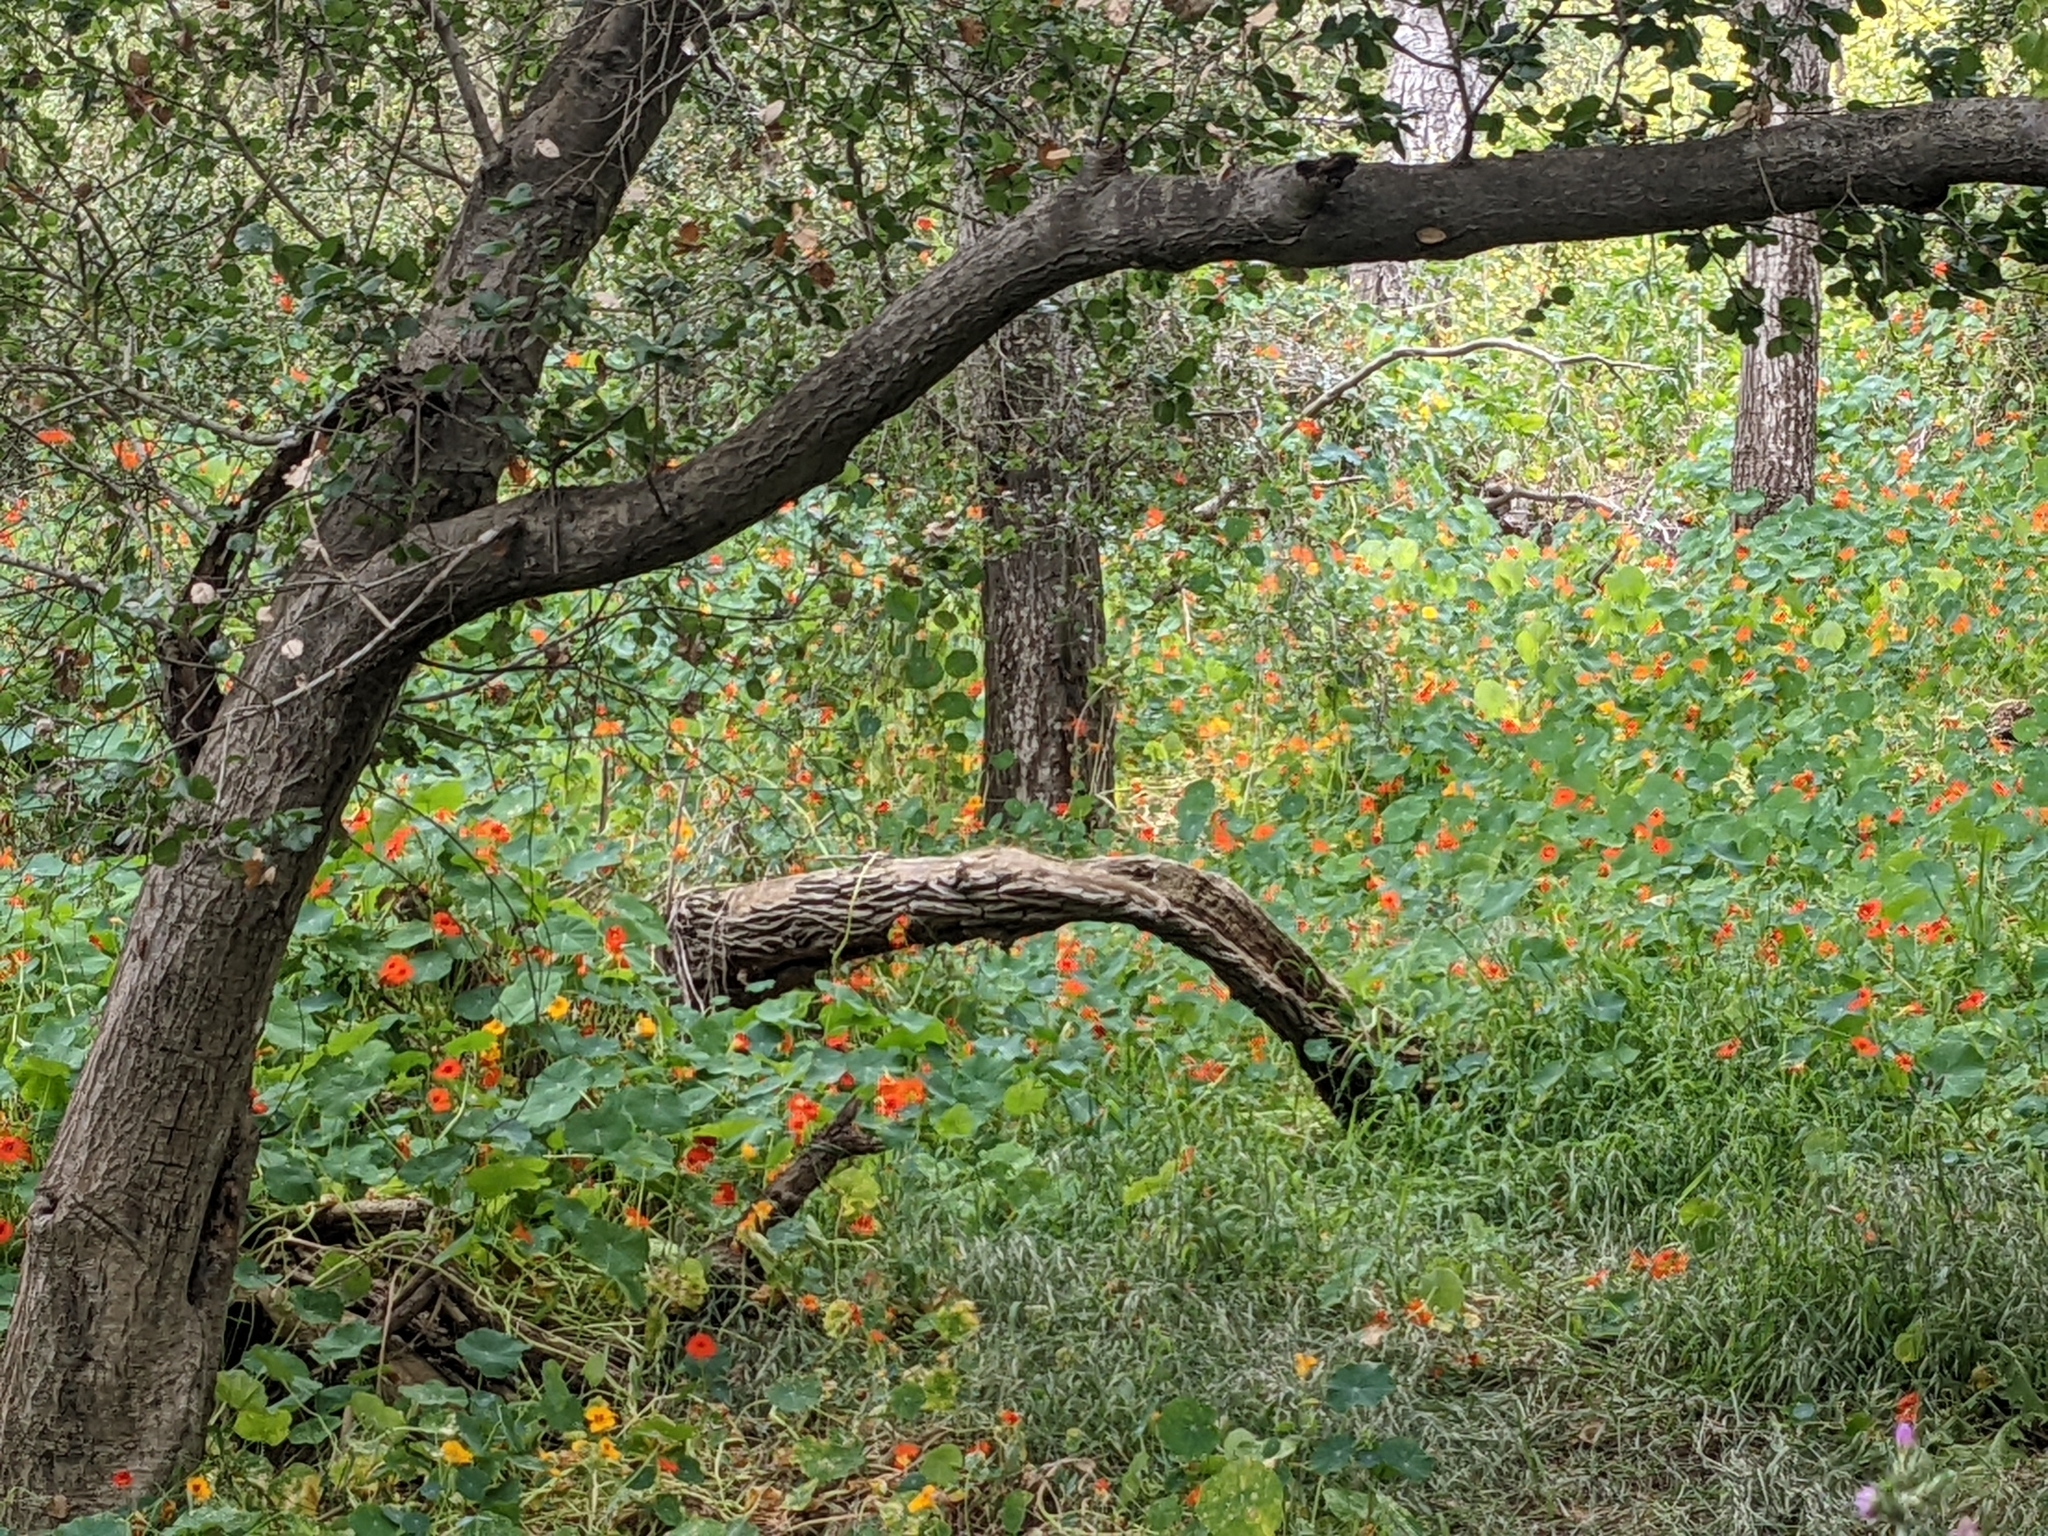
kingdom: Plantae
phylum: Tracheophyta
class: Magnoliopsida
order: Brassicales
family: Tropaeolaceae
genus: Tropaeolum
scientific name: Tropaeolum majus
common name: Nasturtium
